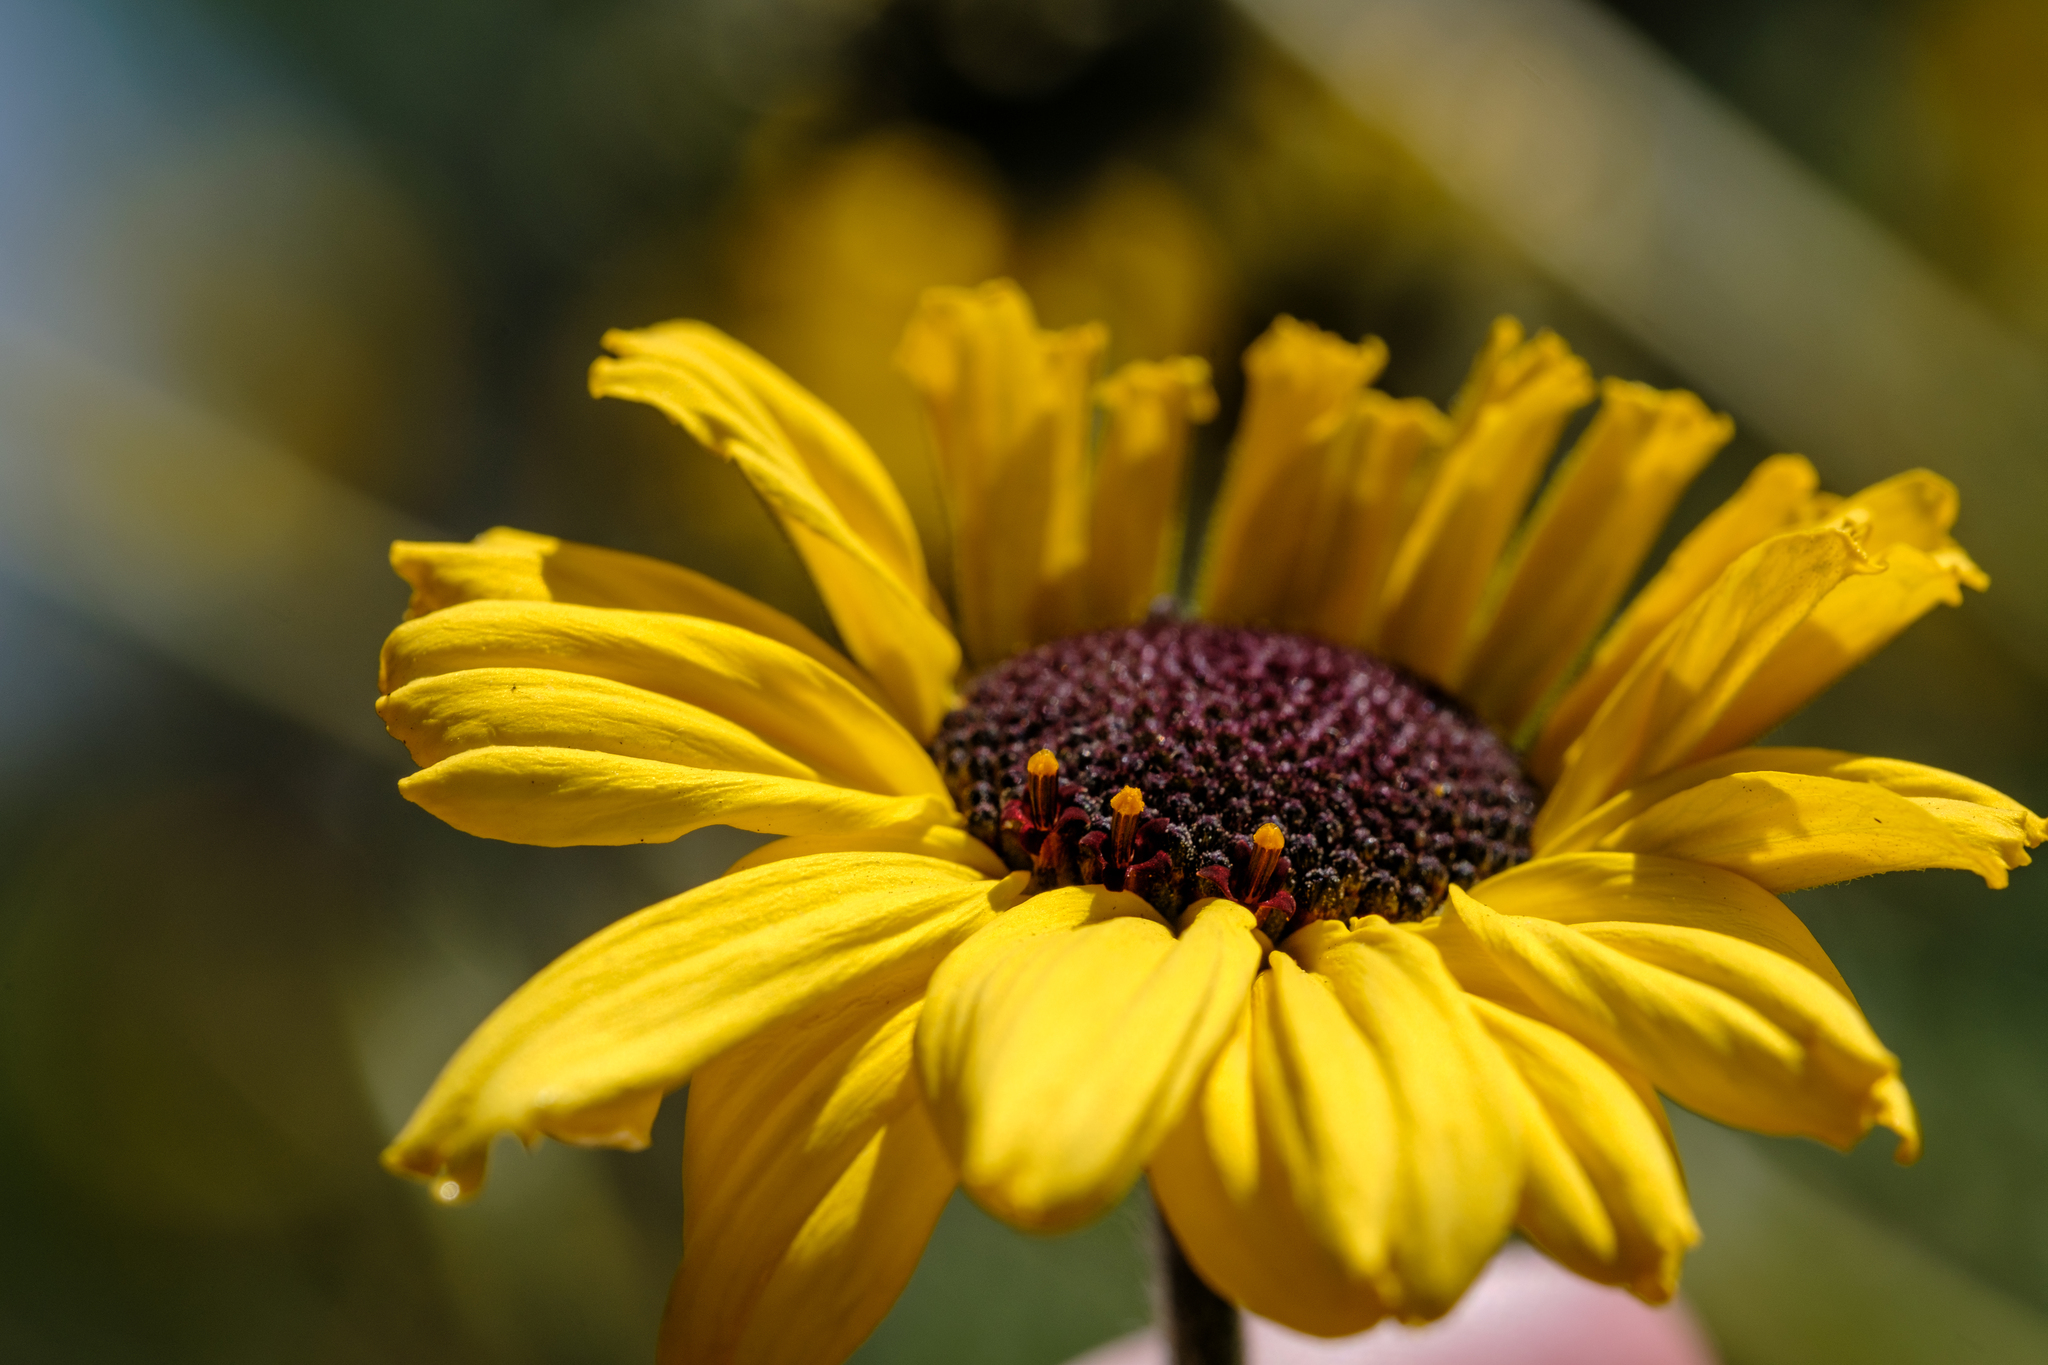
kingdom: Plantae
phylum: Tracheophyta
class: Magnoliopsida
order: Asterales
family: Asteraceae
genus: Encelia
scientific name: Encelia californica
